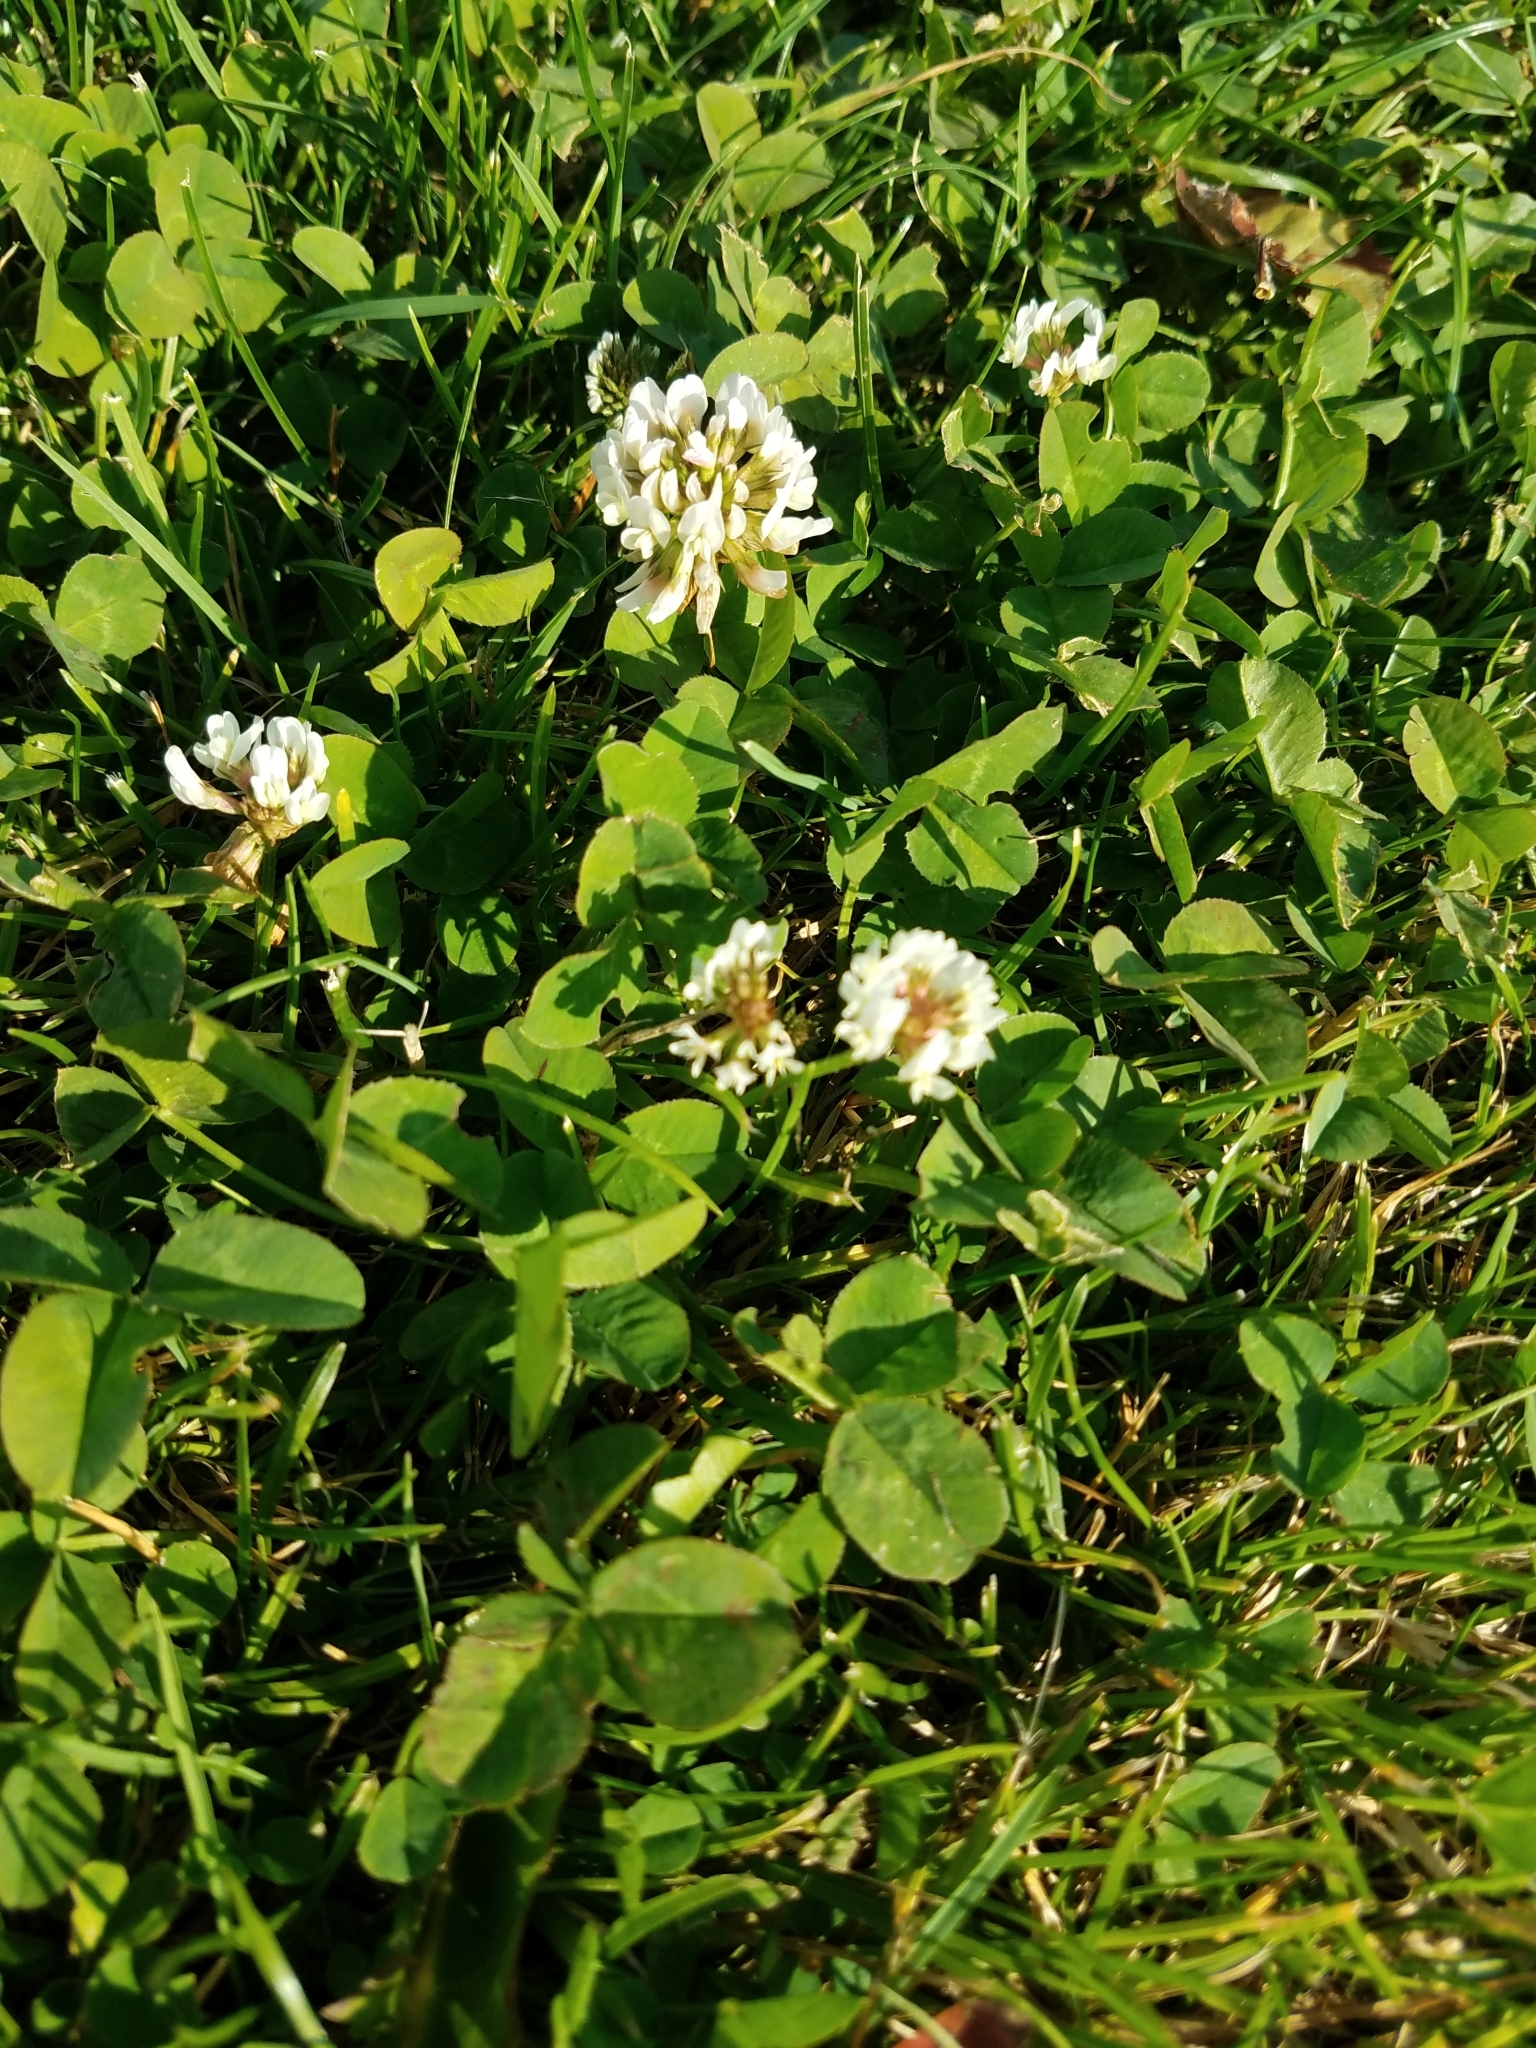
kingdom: Plantae
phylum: Tracheophyta
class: Magnoliopsida
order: Fabales
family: Fabaceae
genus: Trifolium
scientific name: Trifolium repens
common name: White clover
